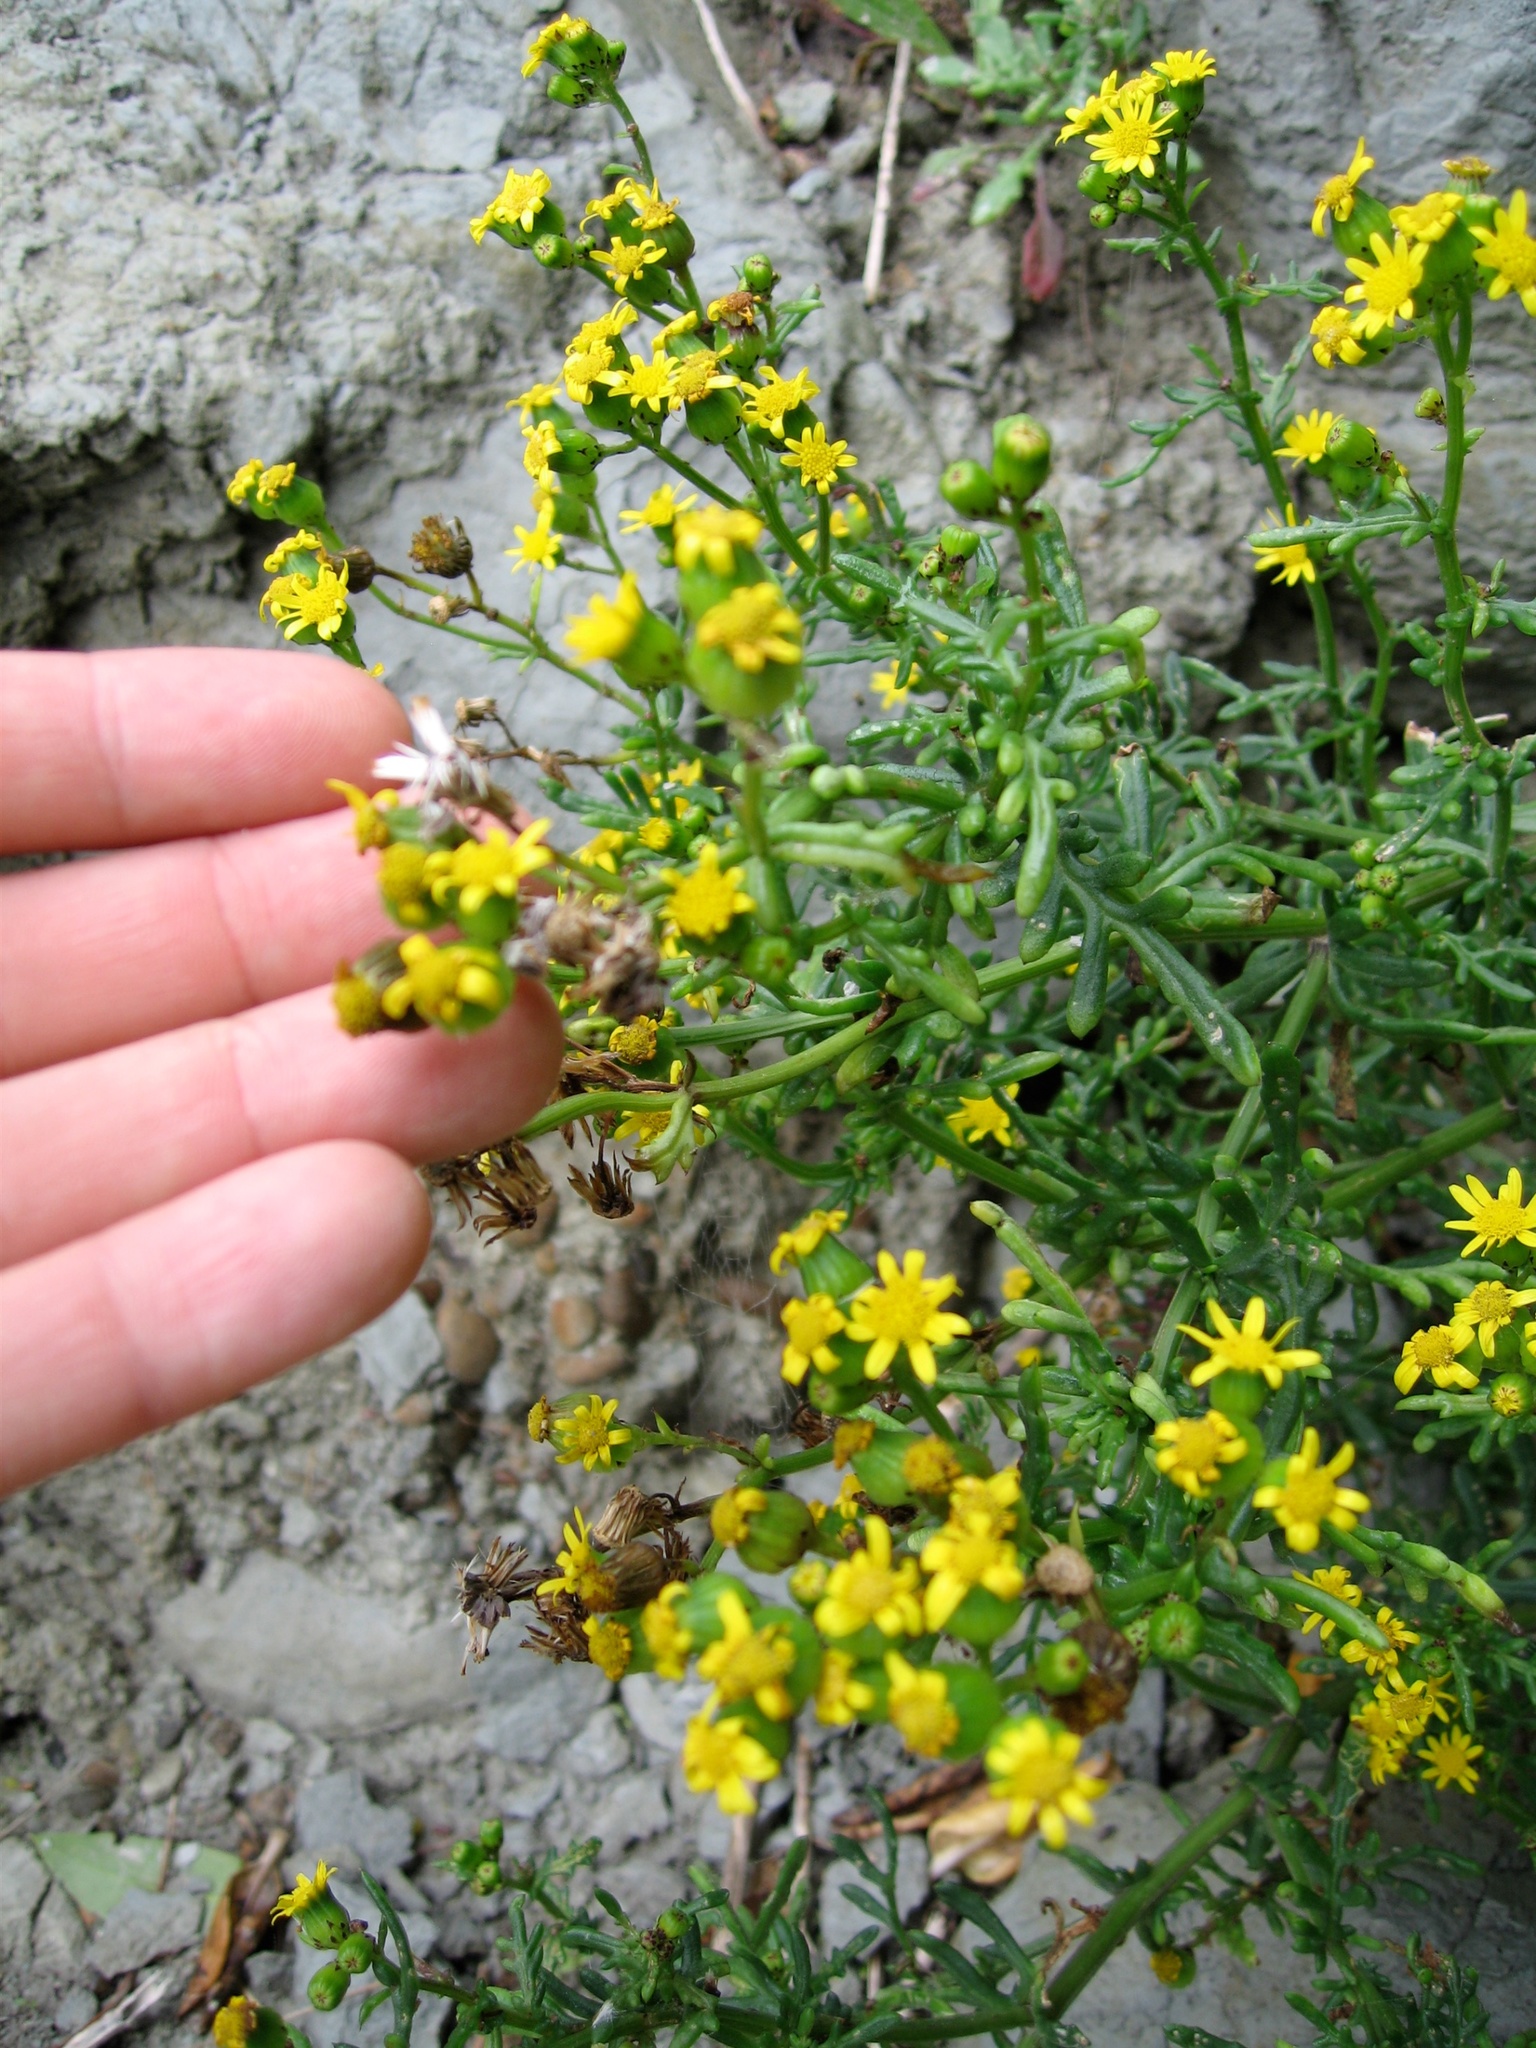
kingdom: Plantae
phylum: Tracheophyta
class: Magnoliopsida
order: Asterales
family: Asteraceae
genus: Senecio
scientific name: Senecio lautus
